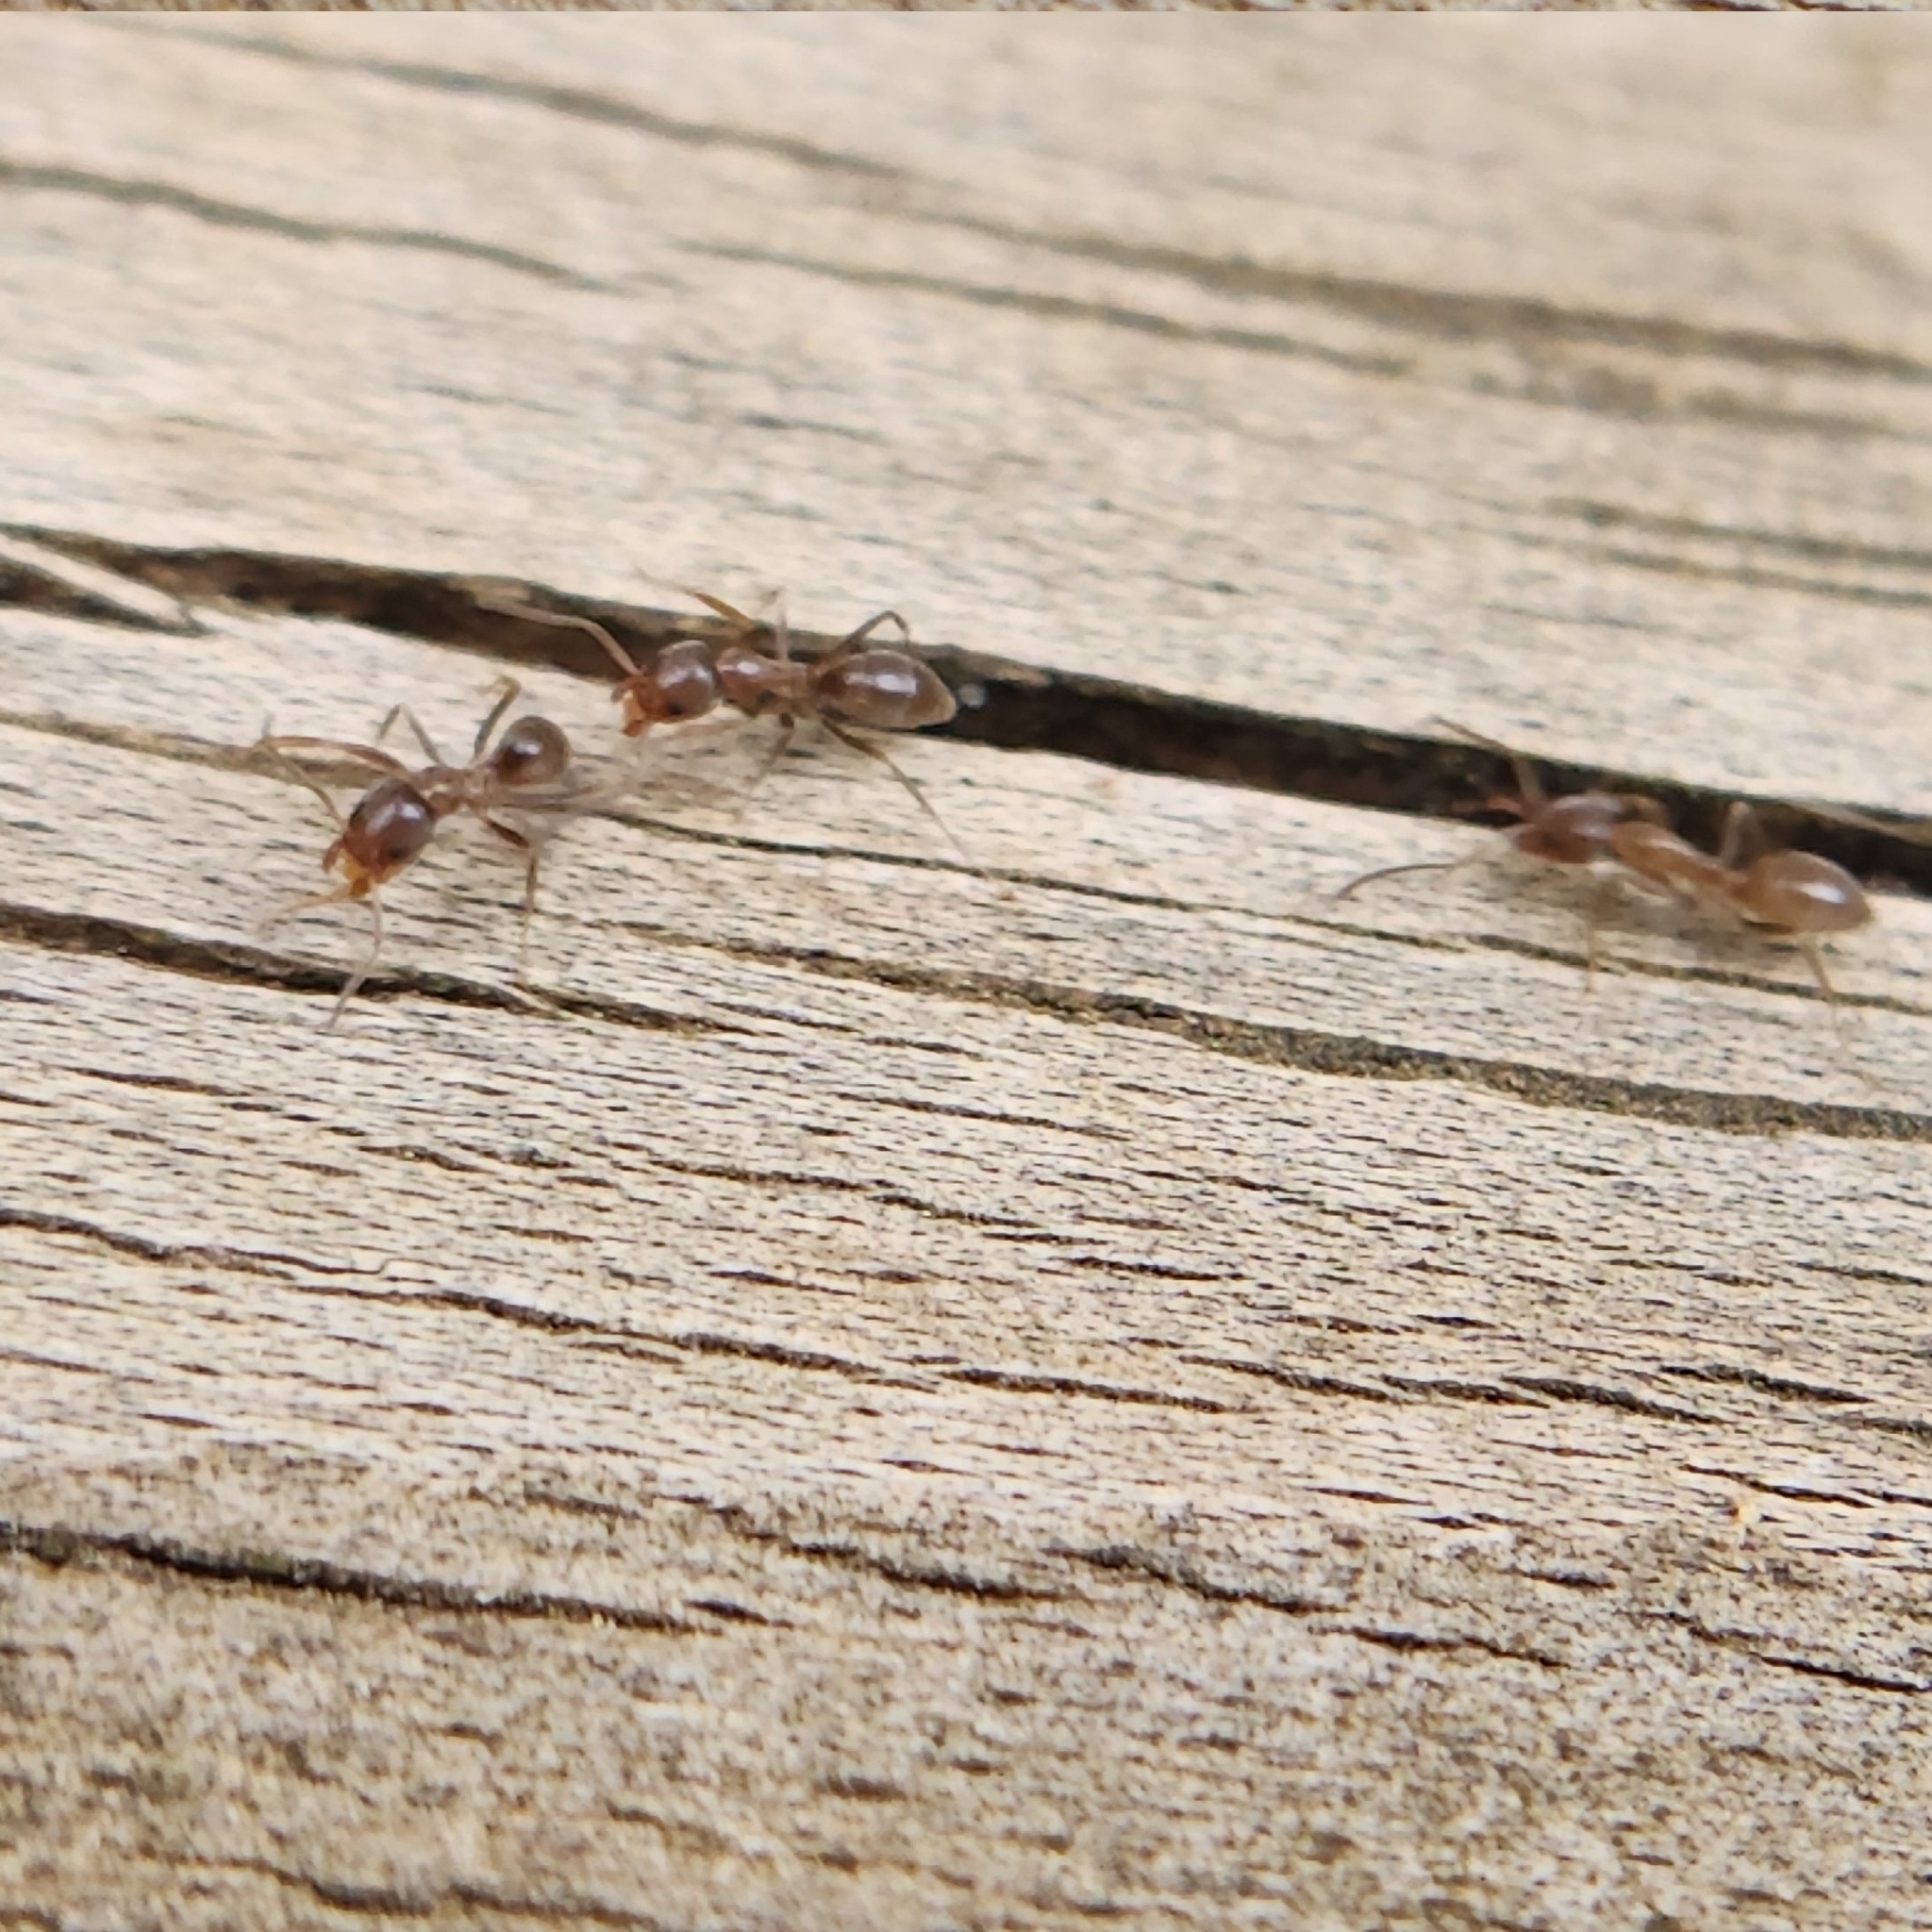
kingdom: Animalia
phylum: Arthropoda
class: Insecta
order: Hymenoptera
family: Formicidae
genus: Linepithema
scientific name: Linepithema humile
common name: Argentine ant
